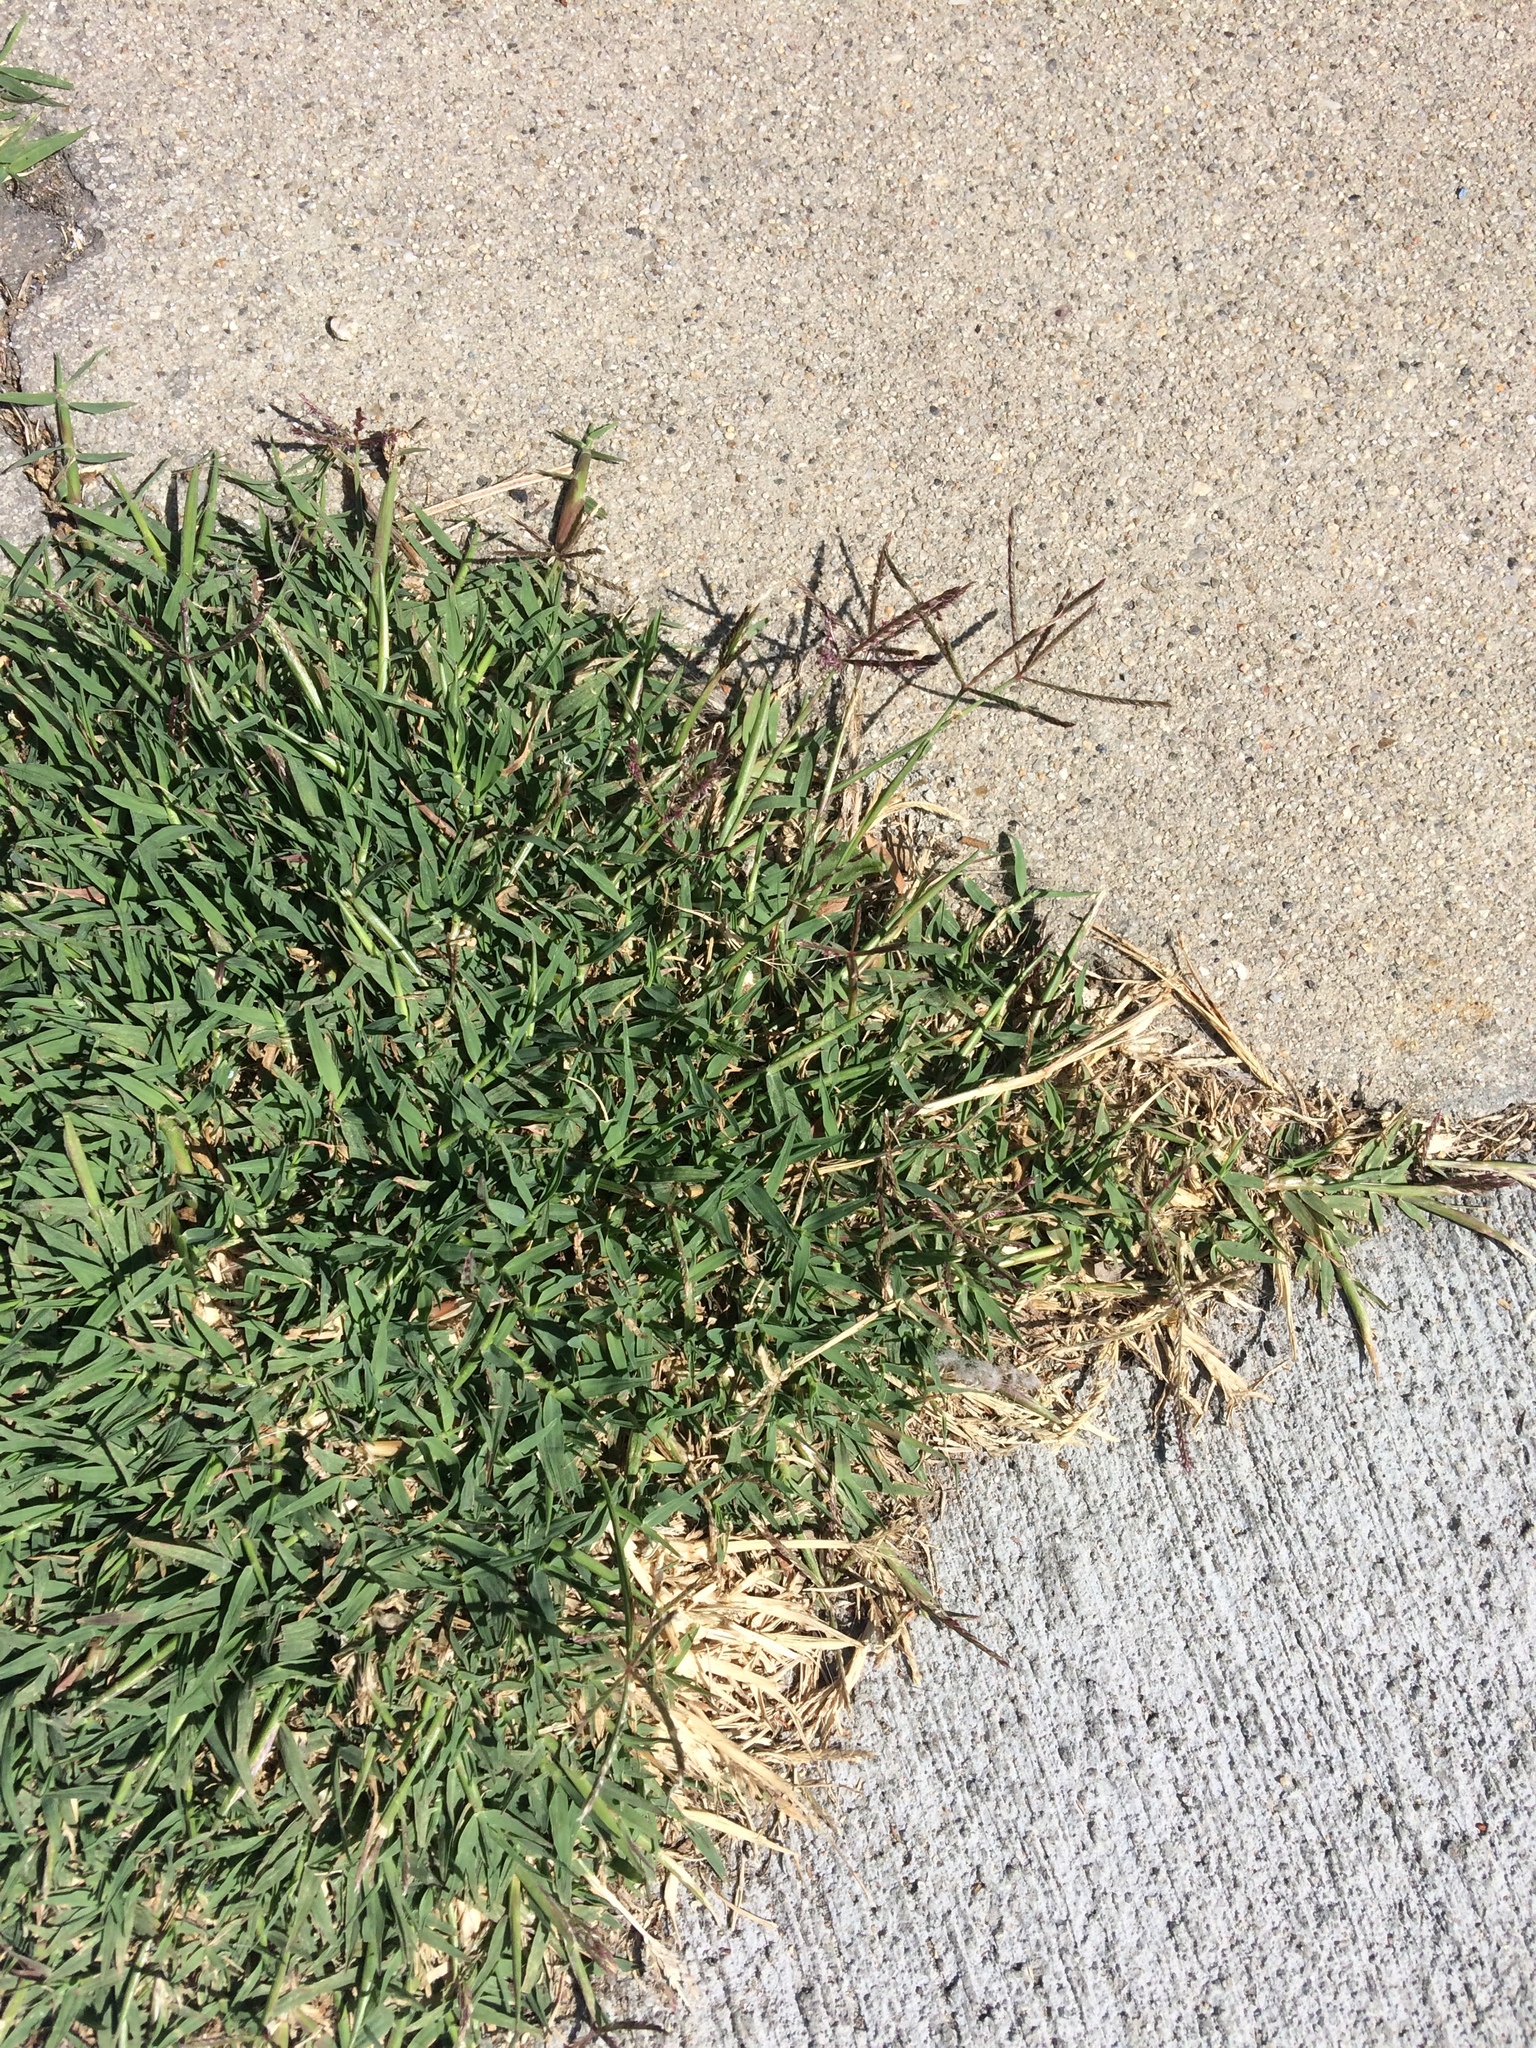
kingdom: Plantae
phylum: Tracheophyta
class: Liliopsida
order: Poales
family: Poaceae
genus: Cynodon
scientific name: Cynodon dactylon
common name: Bermuda grass
